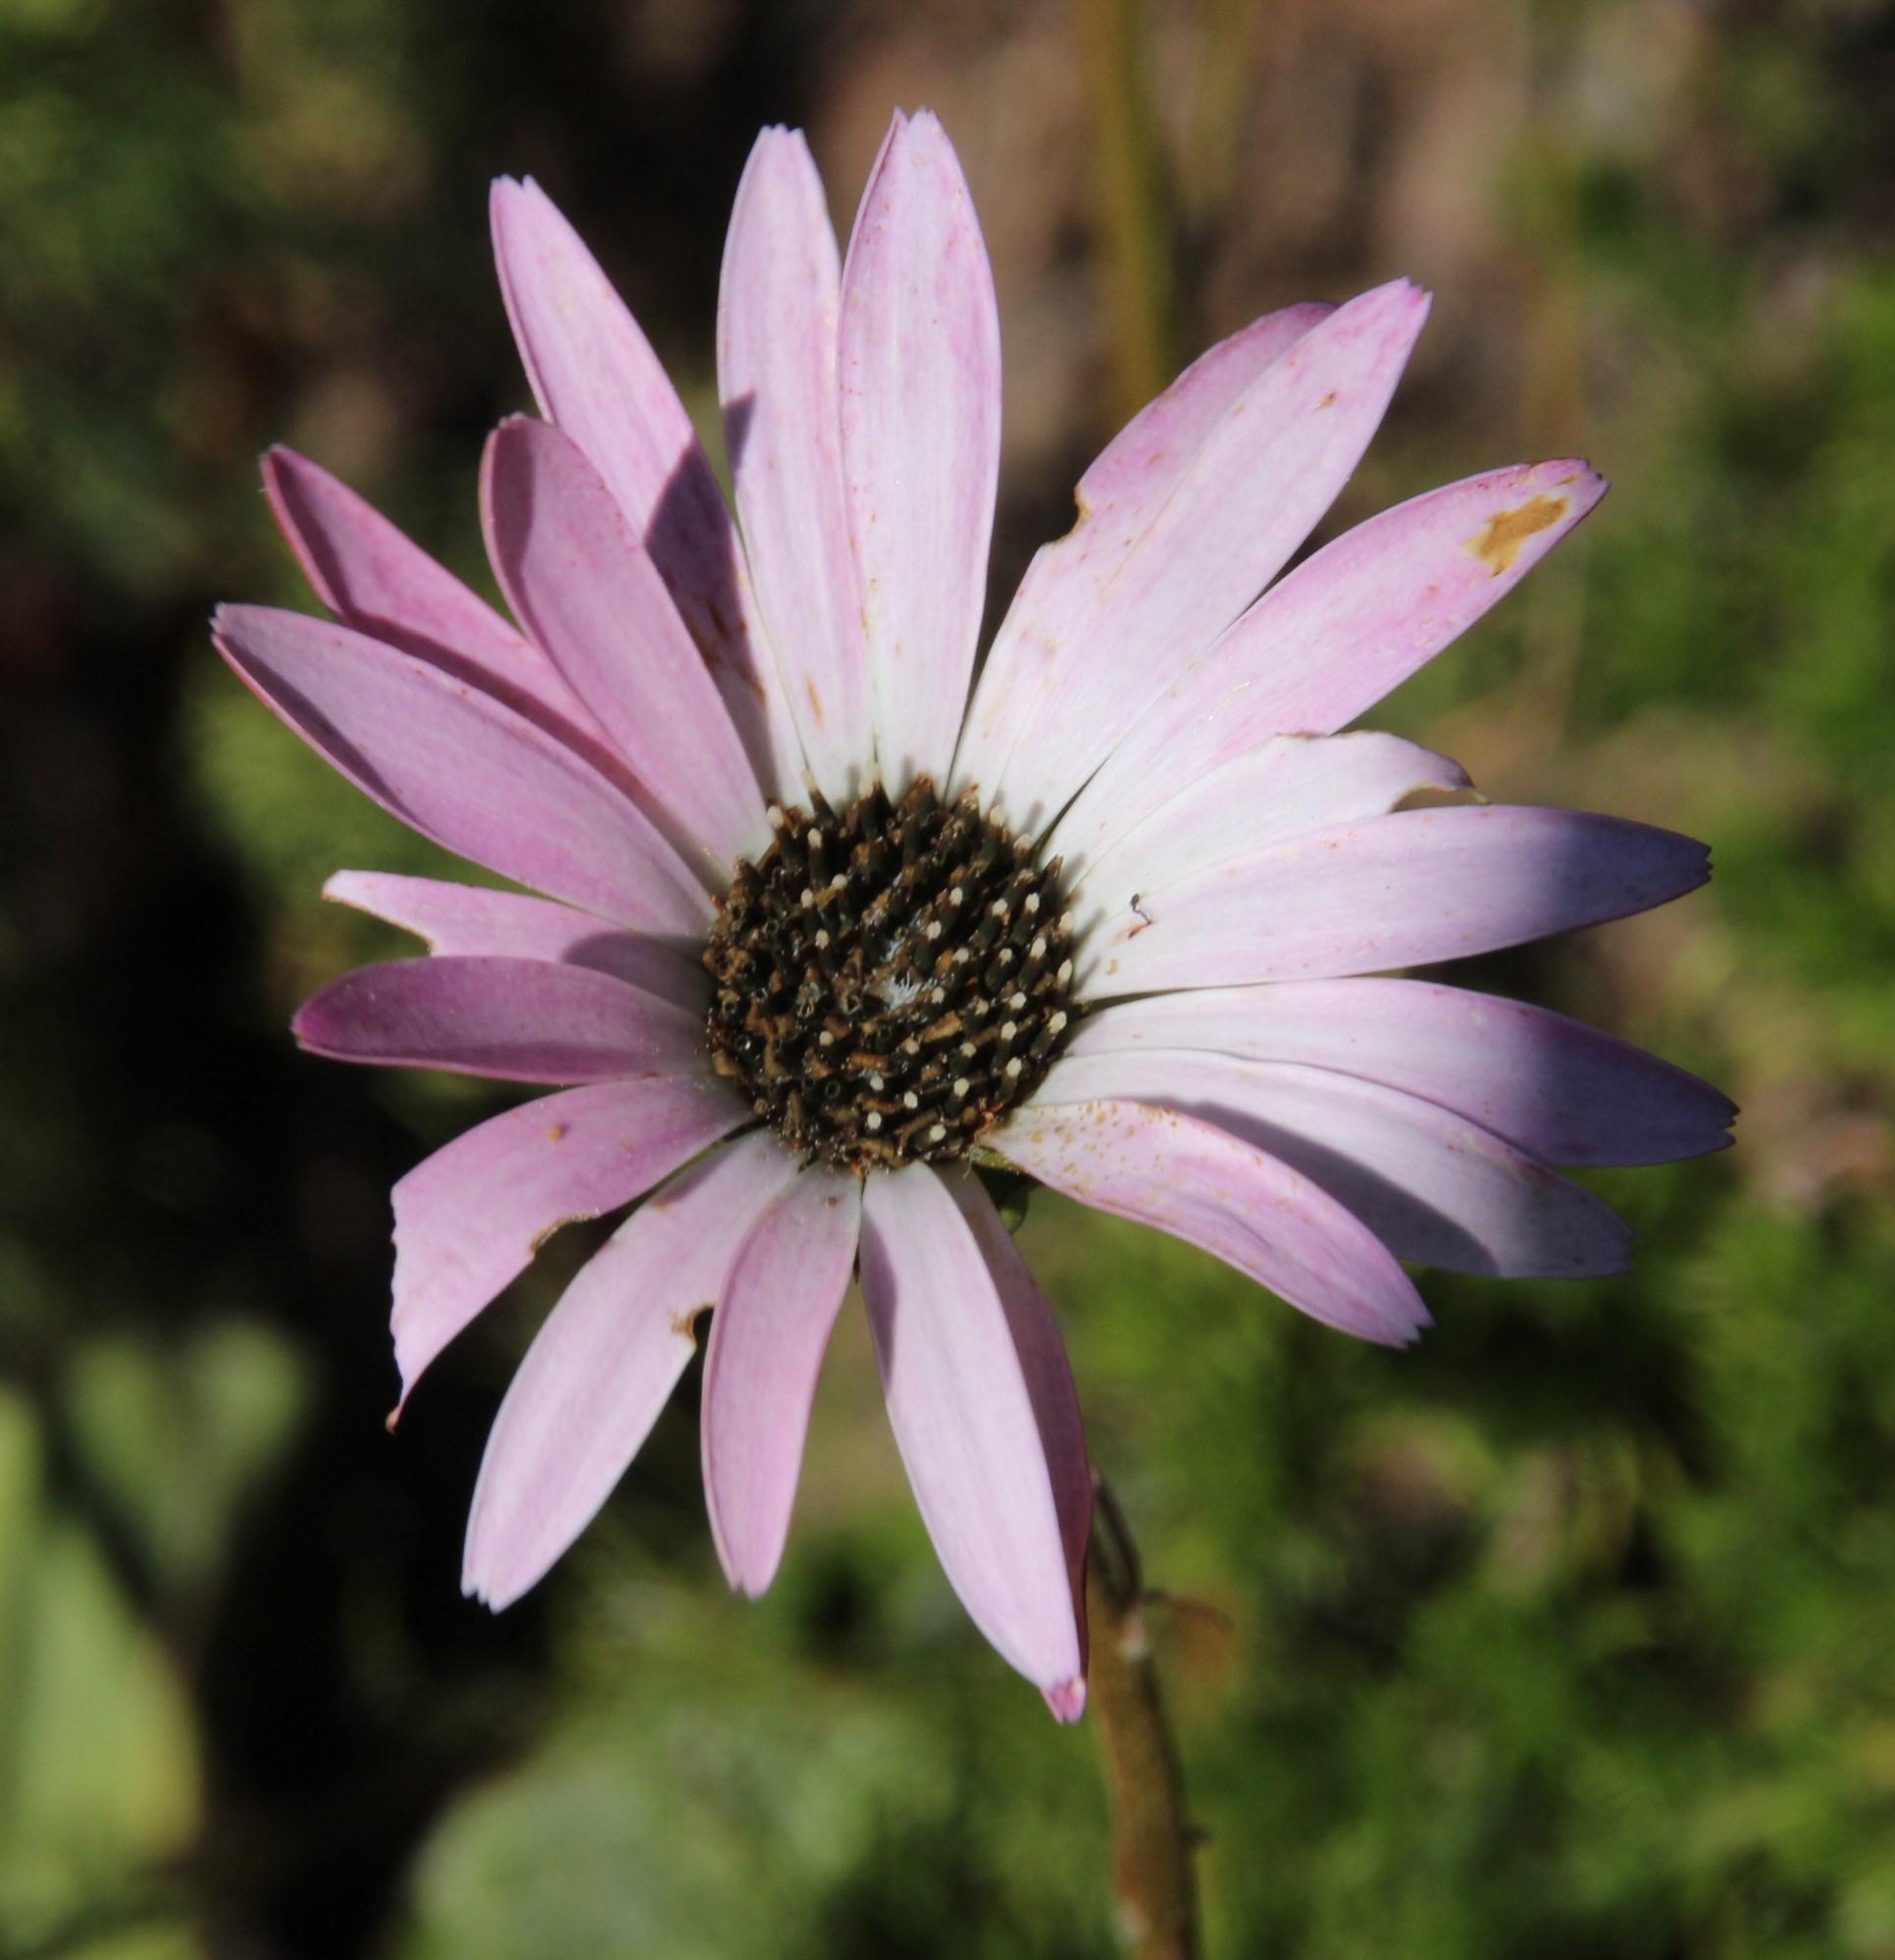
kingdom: Plantae
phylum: Tracheophyta
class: Magnoliopsida
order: Asterales
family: Asteraceae
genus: Gerbera
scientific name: Gerbera crocea
